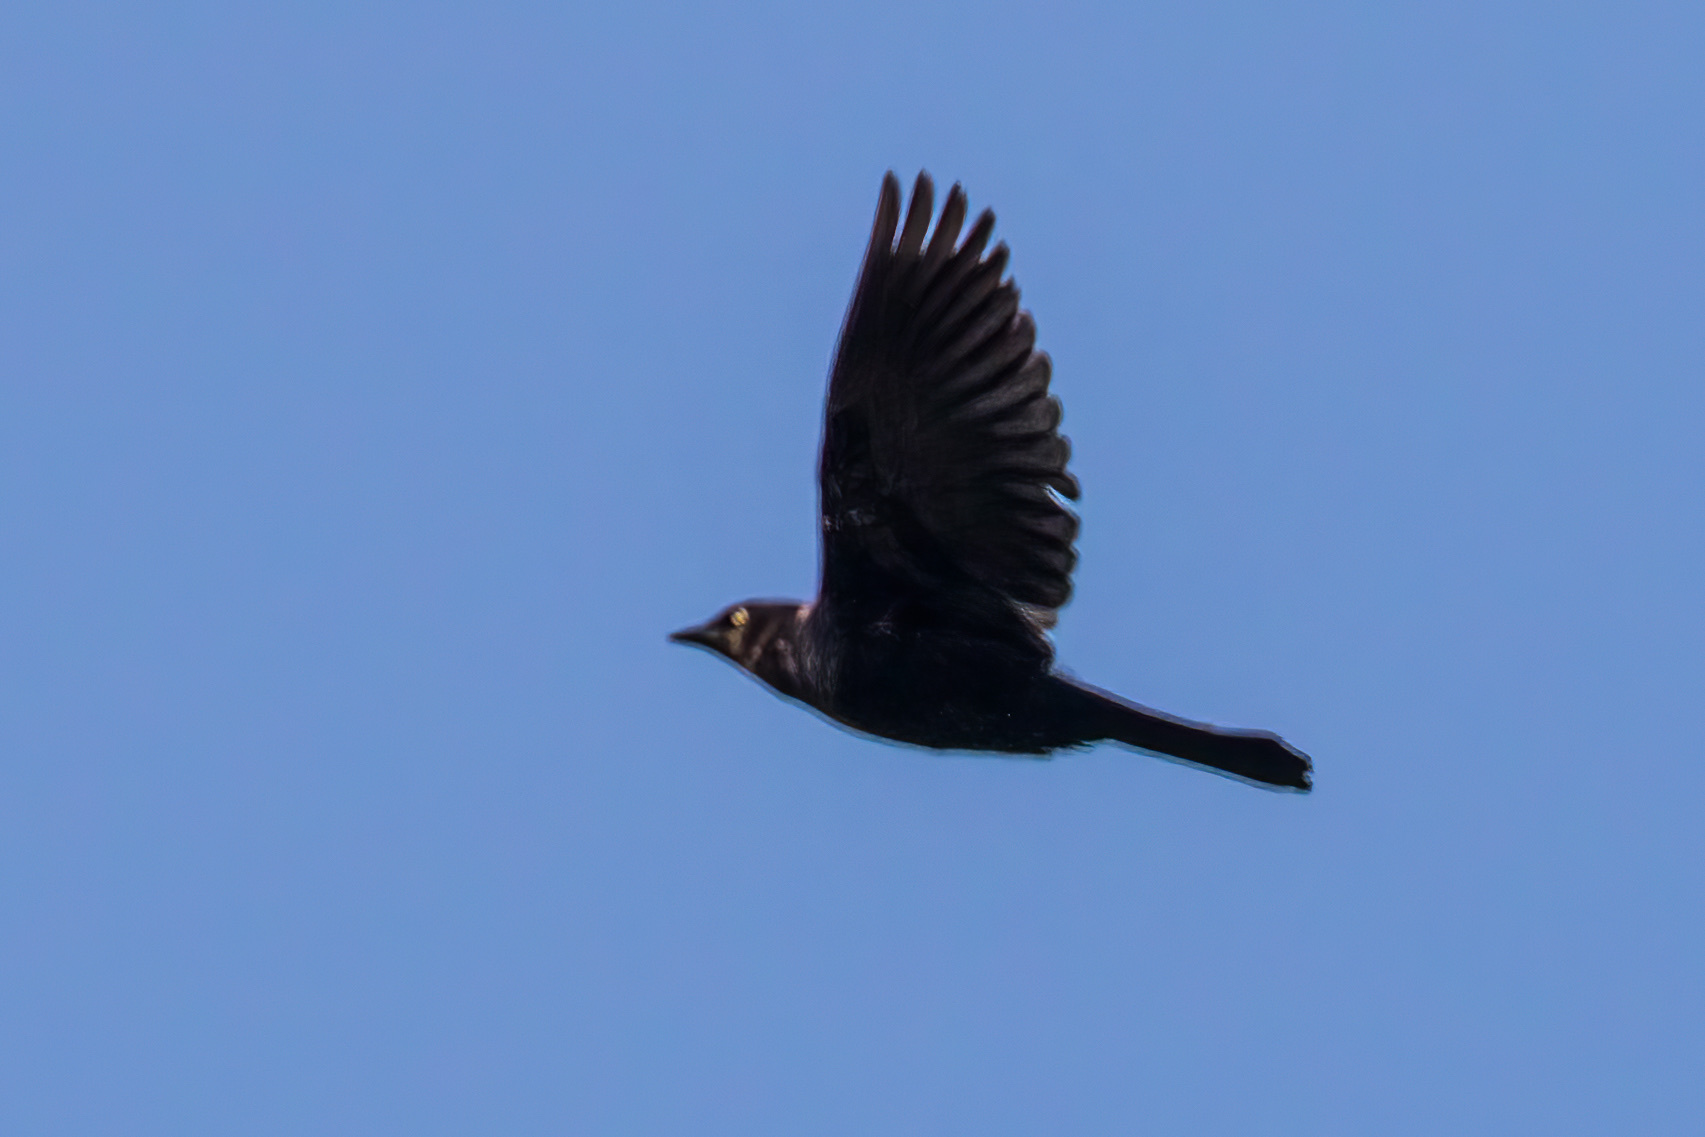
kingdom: Animalia
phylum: Chordata
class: Aves
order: Passeriformes
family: Icteridae
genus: Euphagus
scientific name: Euphagus cyanocephalus
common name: Brewer's blackbird
